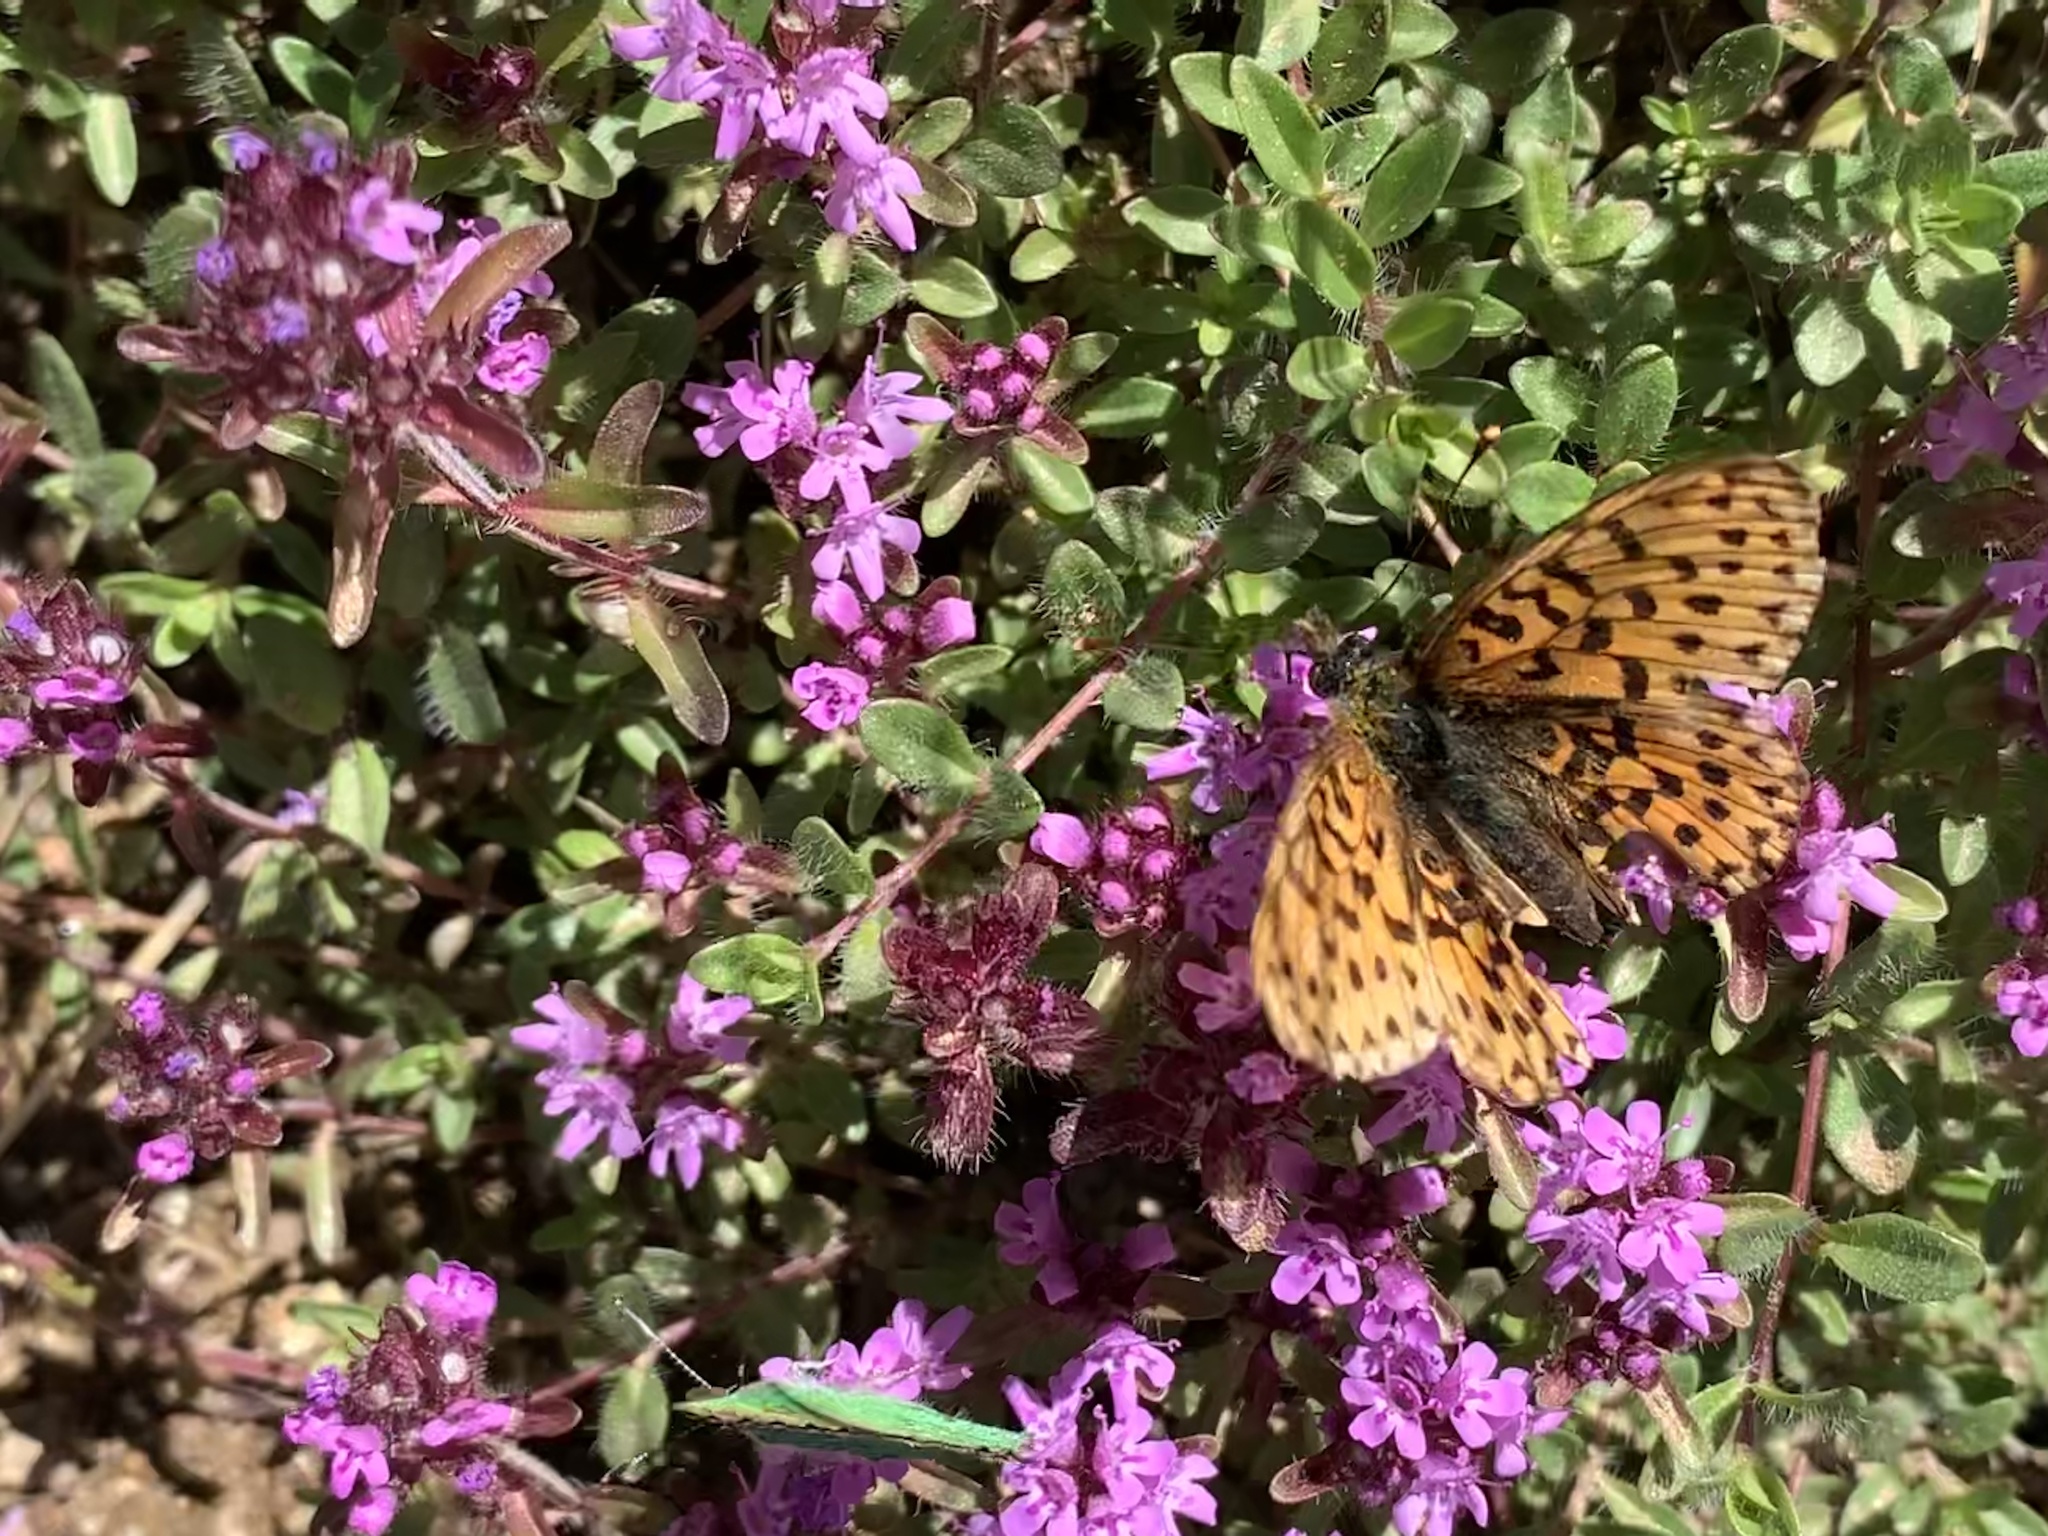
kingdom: Plantae
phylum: Tracheophyta
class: Magnoliopsida
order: Lamiales
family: Lamiaceae
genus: Thymus
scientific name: Thymus praecox
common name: Wild thyme
